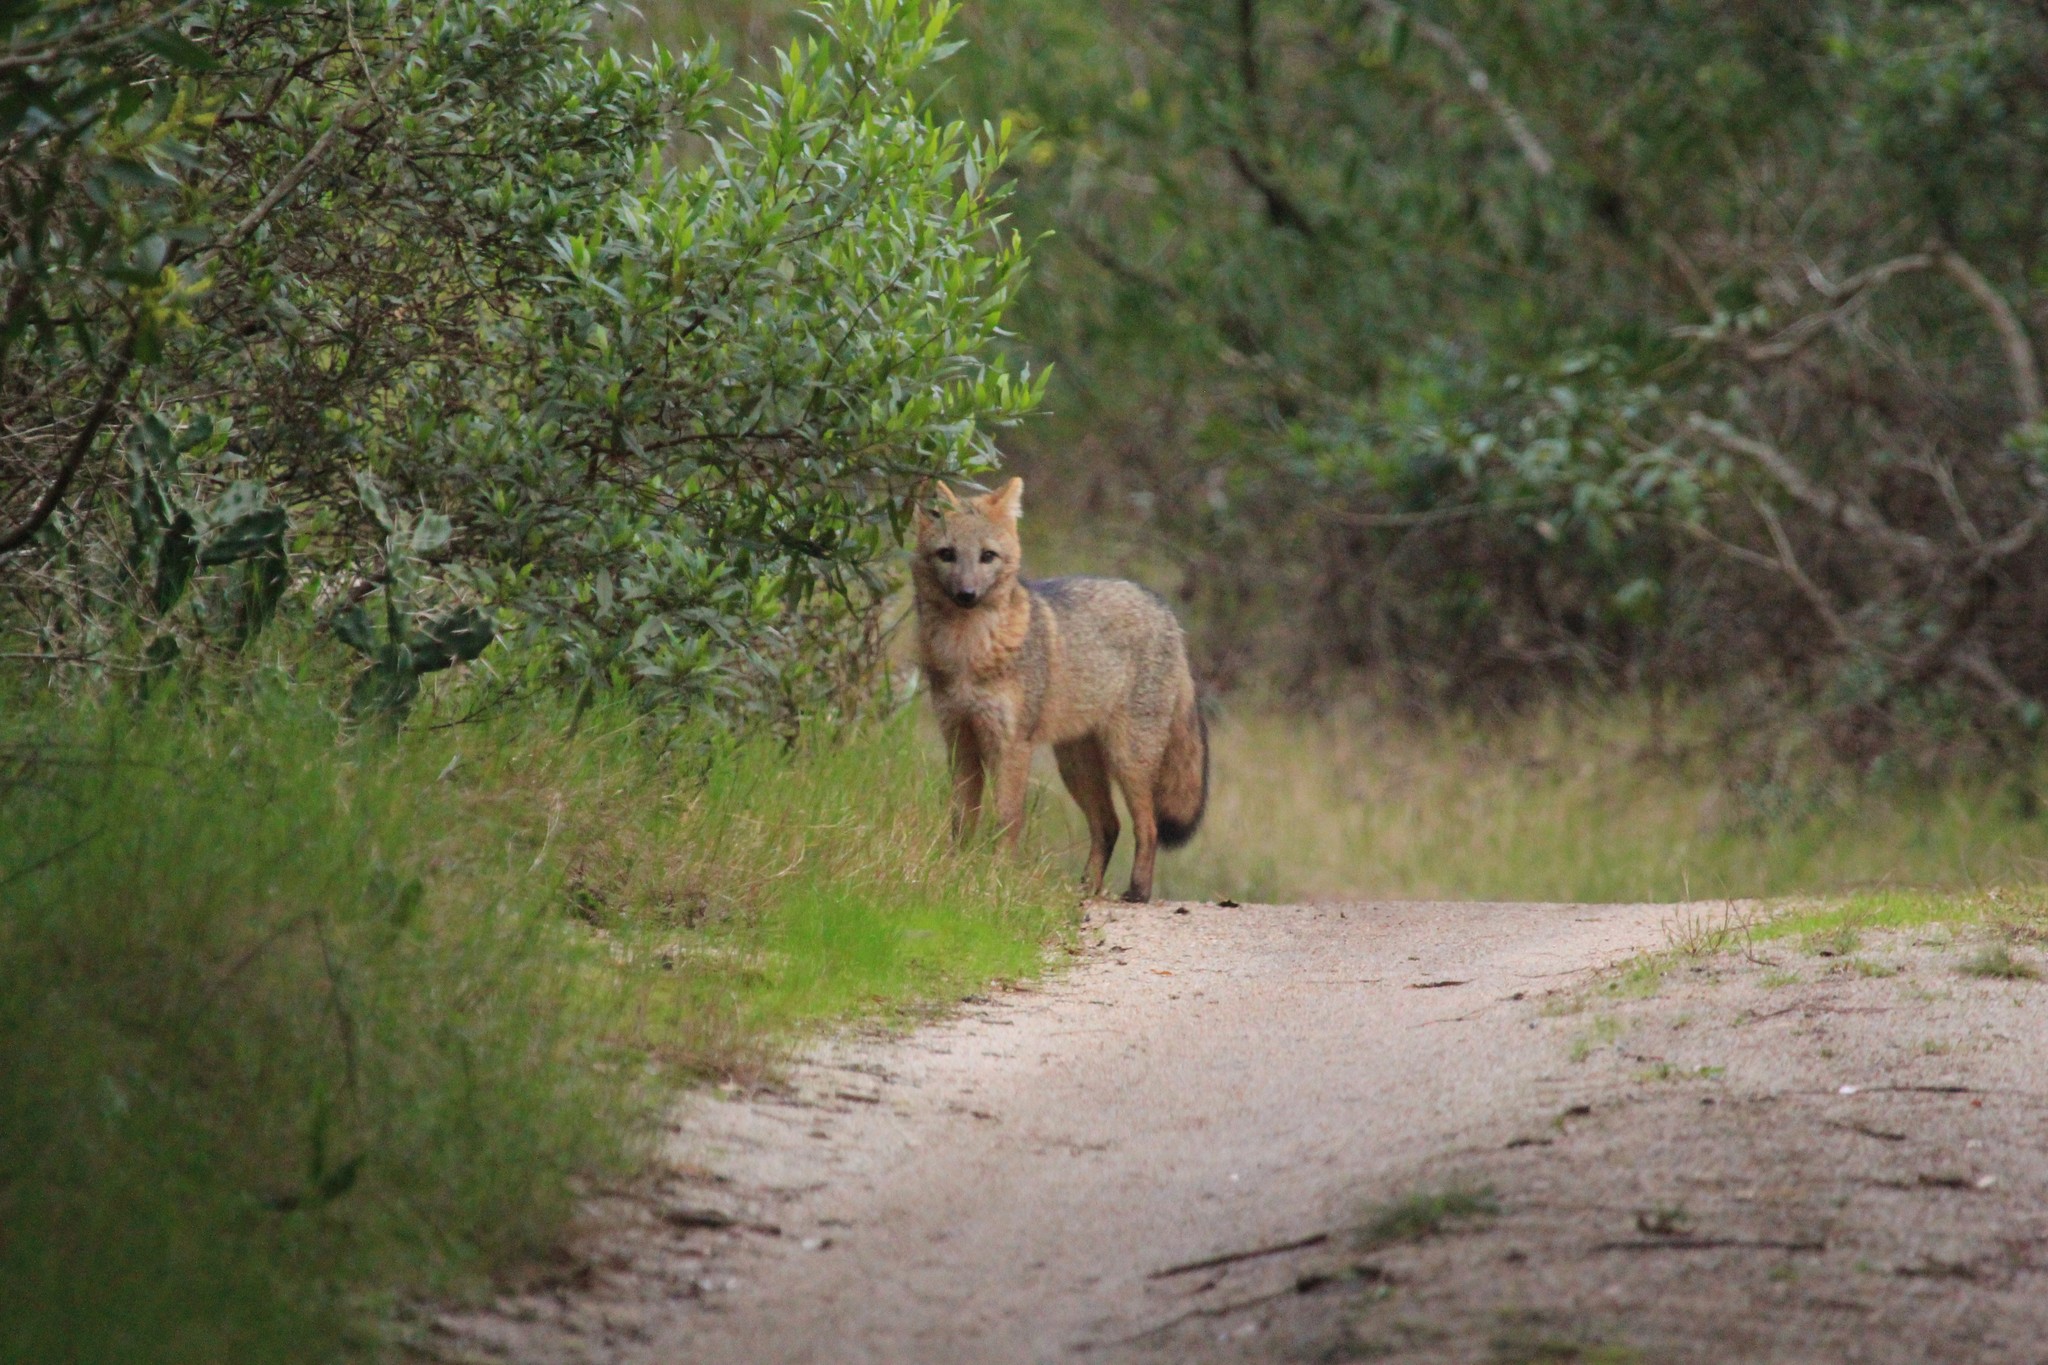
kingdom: Animalia
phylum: Chordata
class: Mammalia
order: Carnivora
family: Canidae
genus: Cerdocyon
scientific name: Cerdocyon thous
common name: Crab-eating fox
